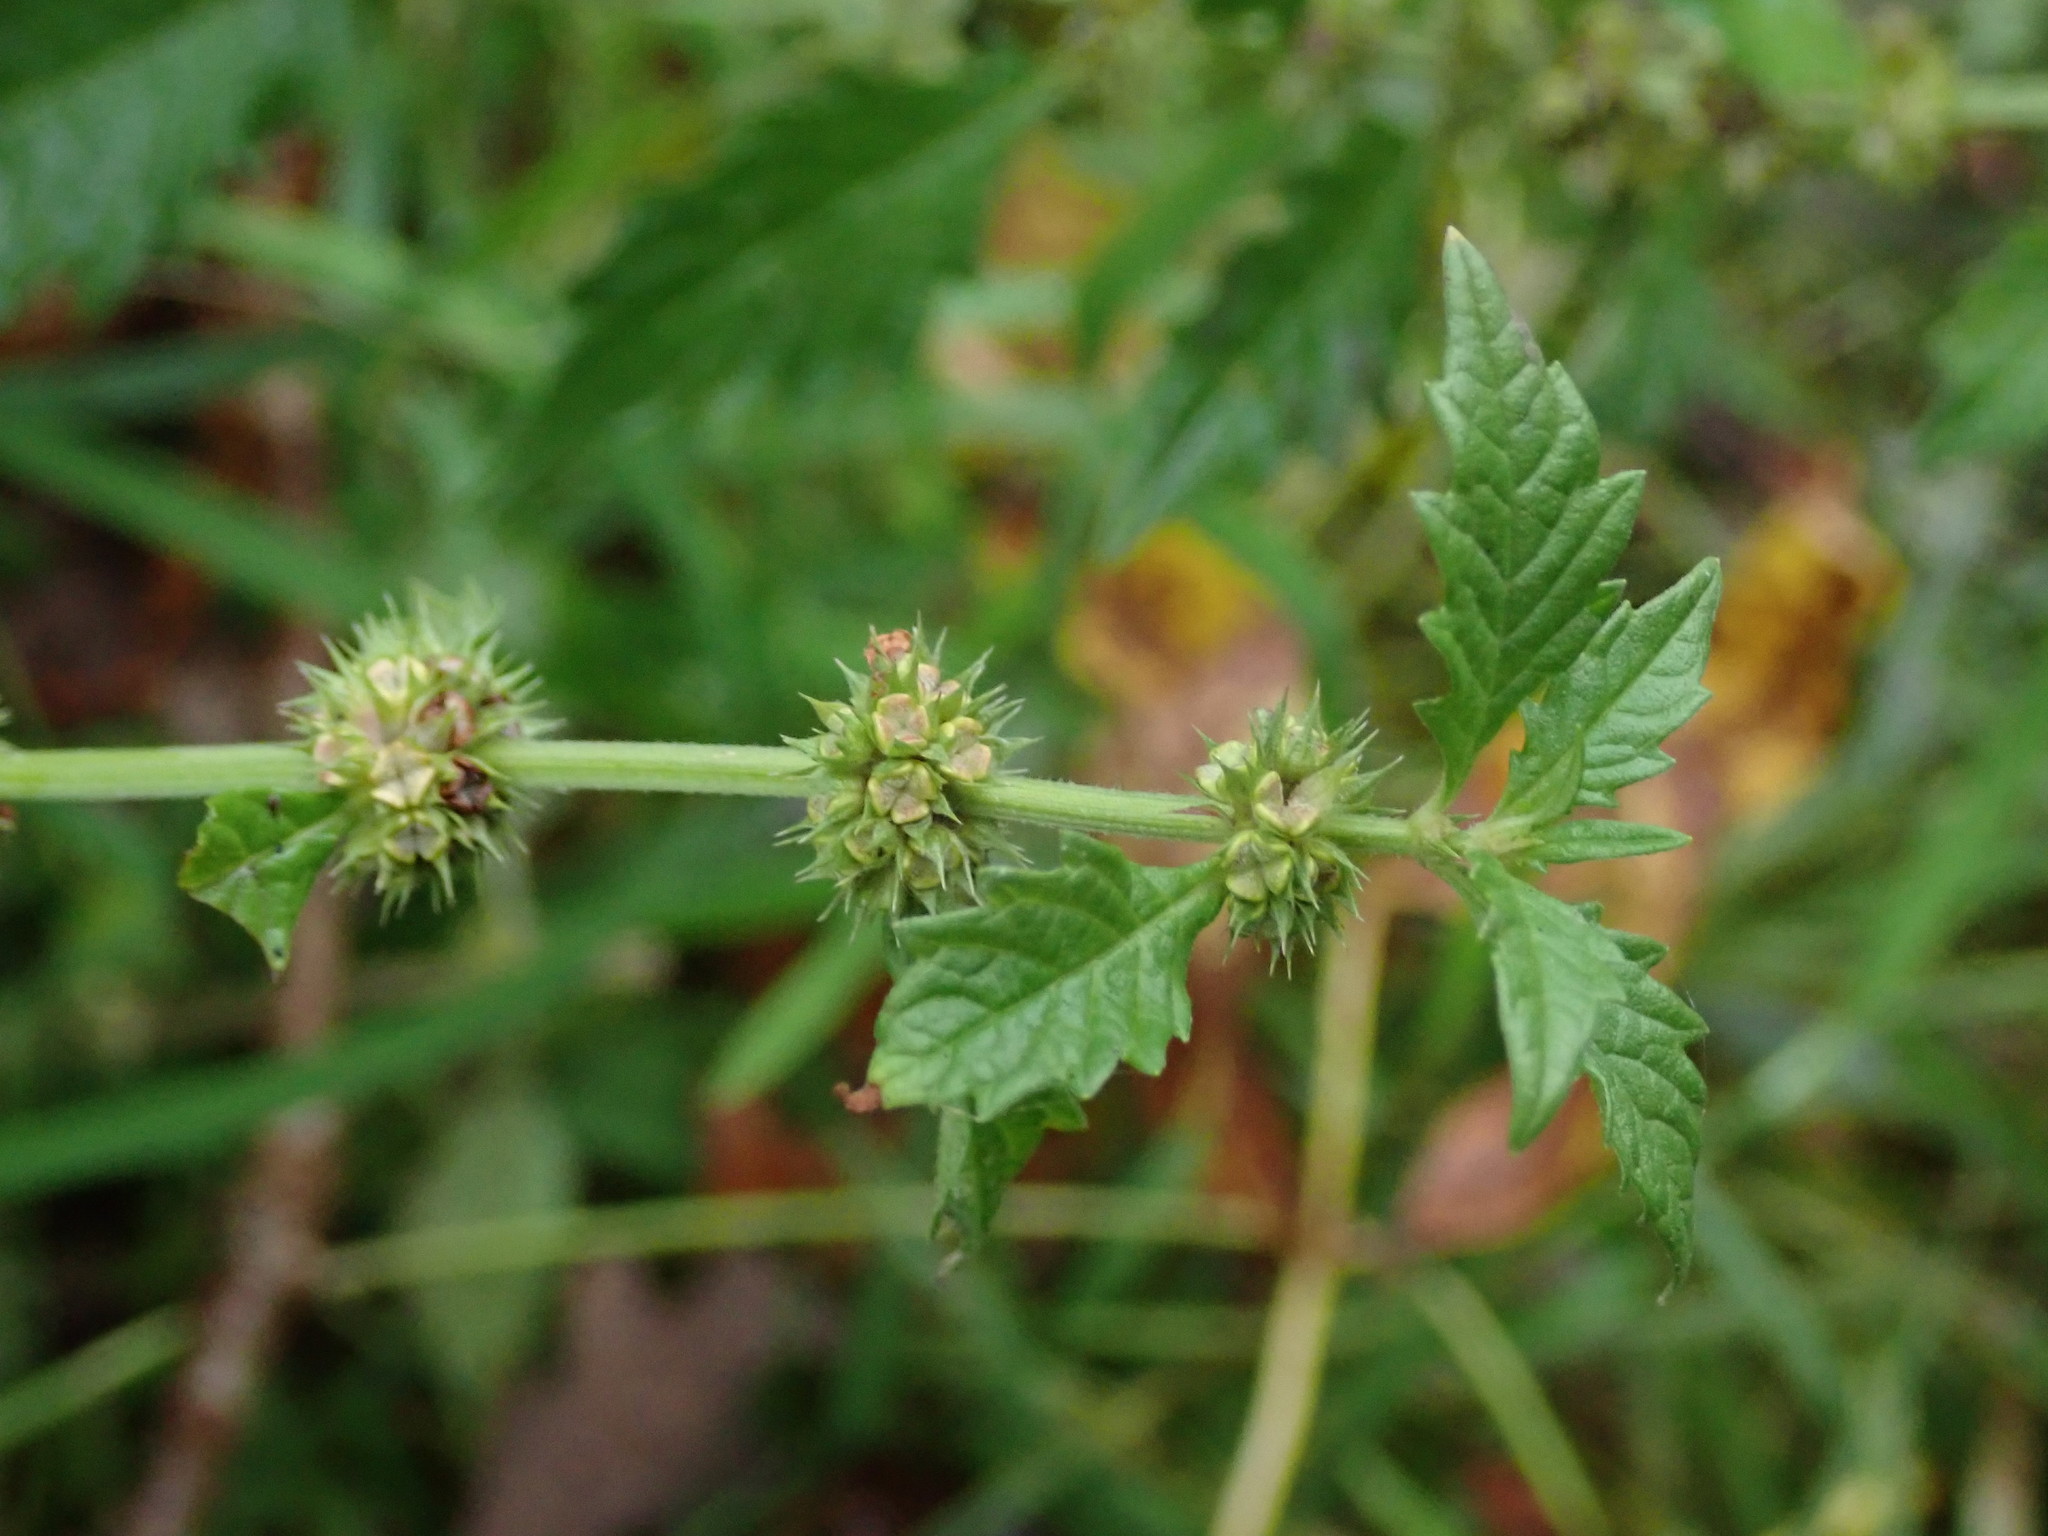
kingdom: Plantae
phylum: Tracheophyta
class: Magnoliopsida
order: Lamiales
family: Lamiaceae
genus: Lycopus
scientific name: Lycopus europaeus
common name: European bugleweed
